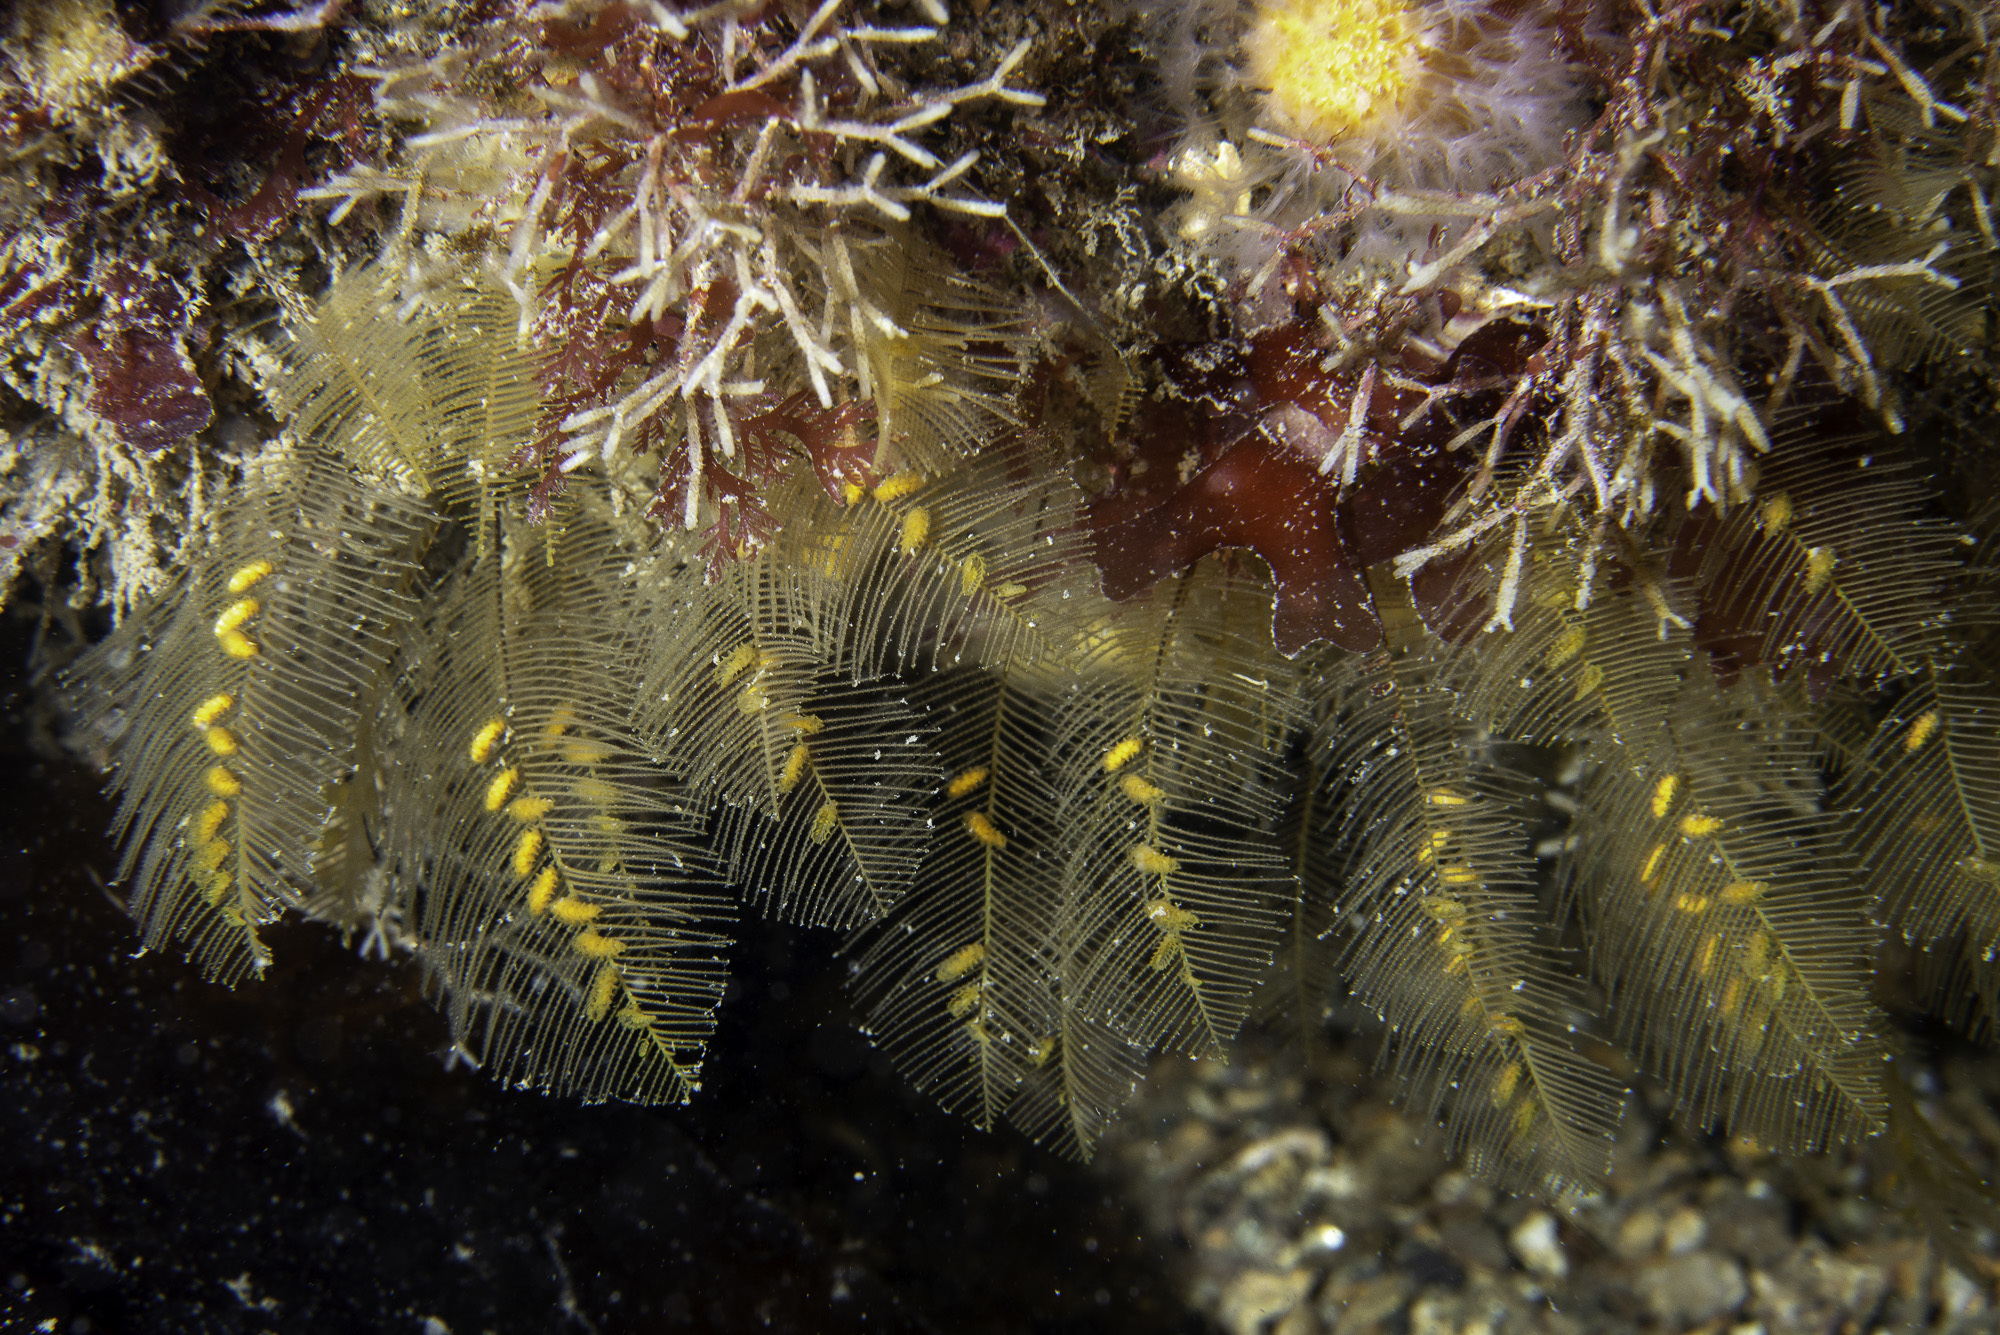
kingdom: Animalia
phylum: Cnidaria
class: Hydrozoa
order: Leptothecata
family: Aglaopheniidae
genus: Aglaophenia
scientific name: Aglaophenia tubulifera
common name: Plume hydroid
